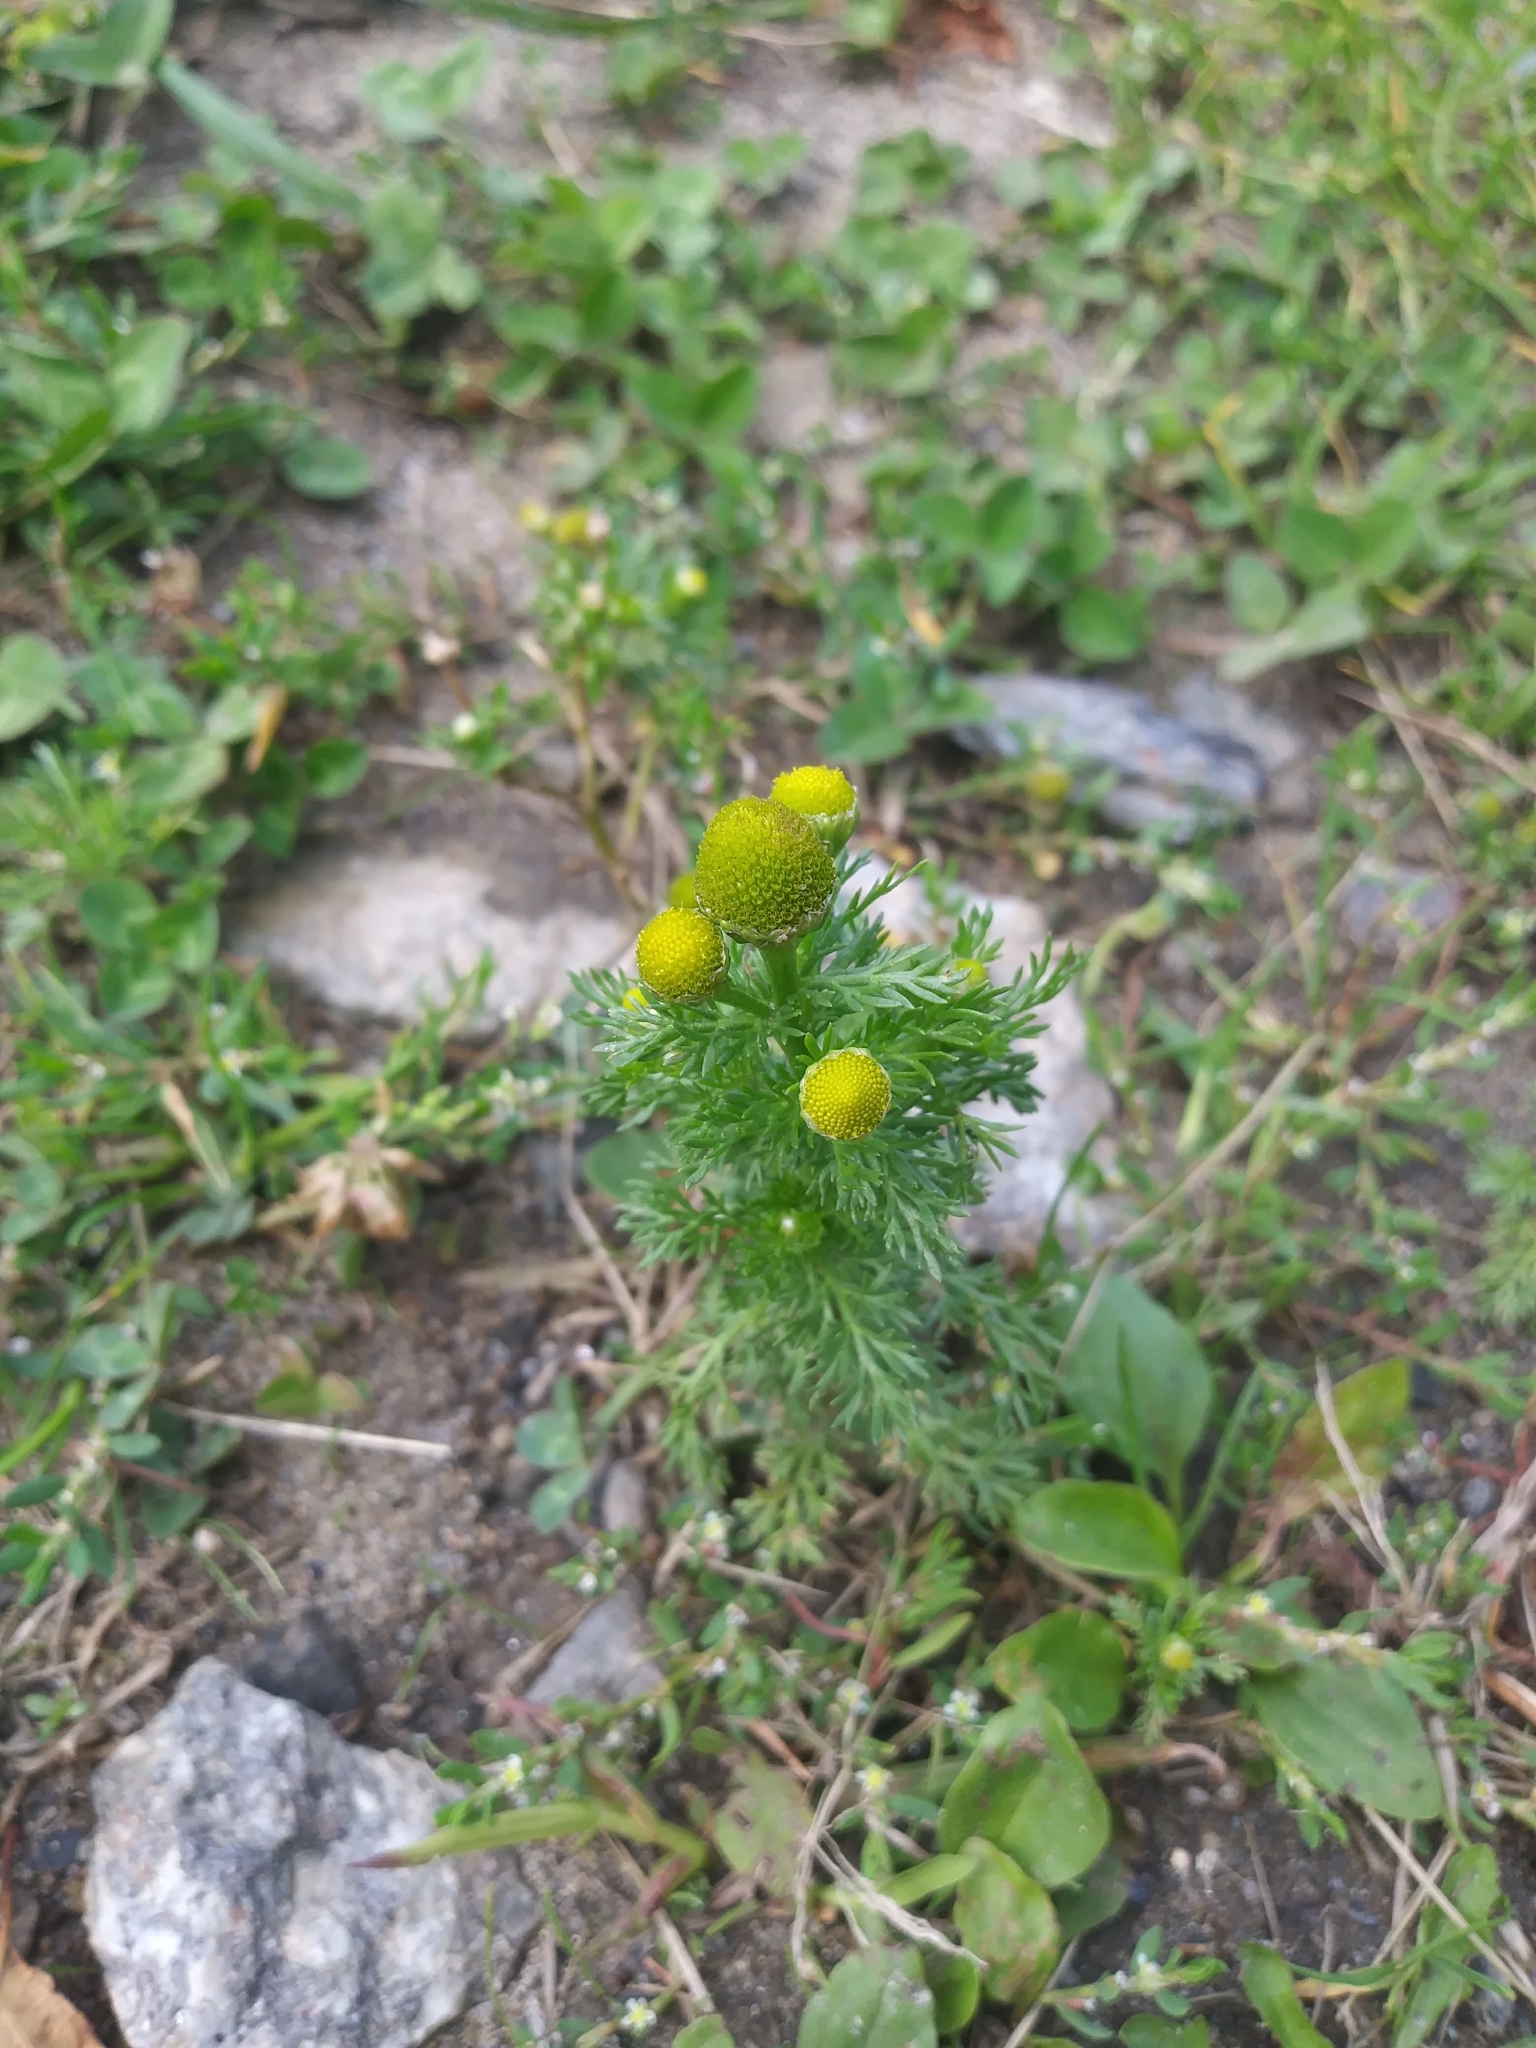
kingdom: Plantae
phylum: Tracheophyta
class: Magnoliopsida
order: Asterales
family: Asteraceae
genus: Matricaria
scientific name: Matricaria discoidea
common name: Disc mayweed
